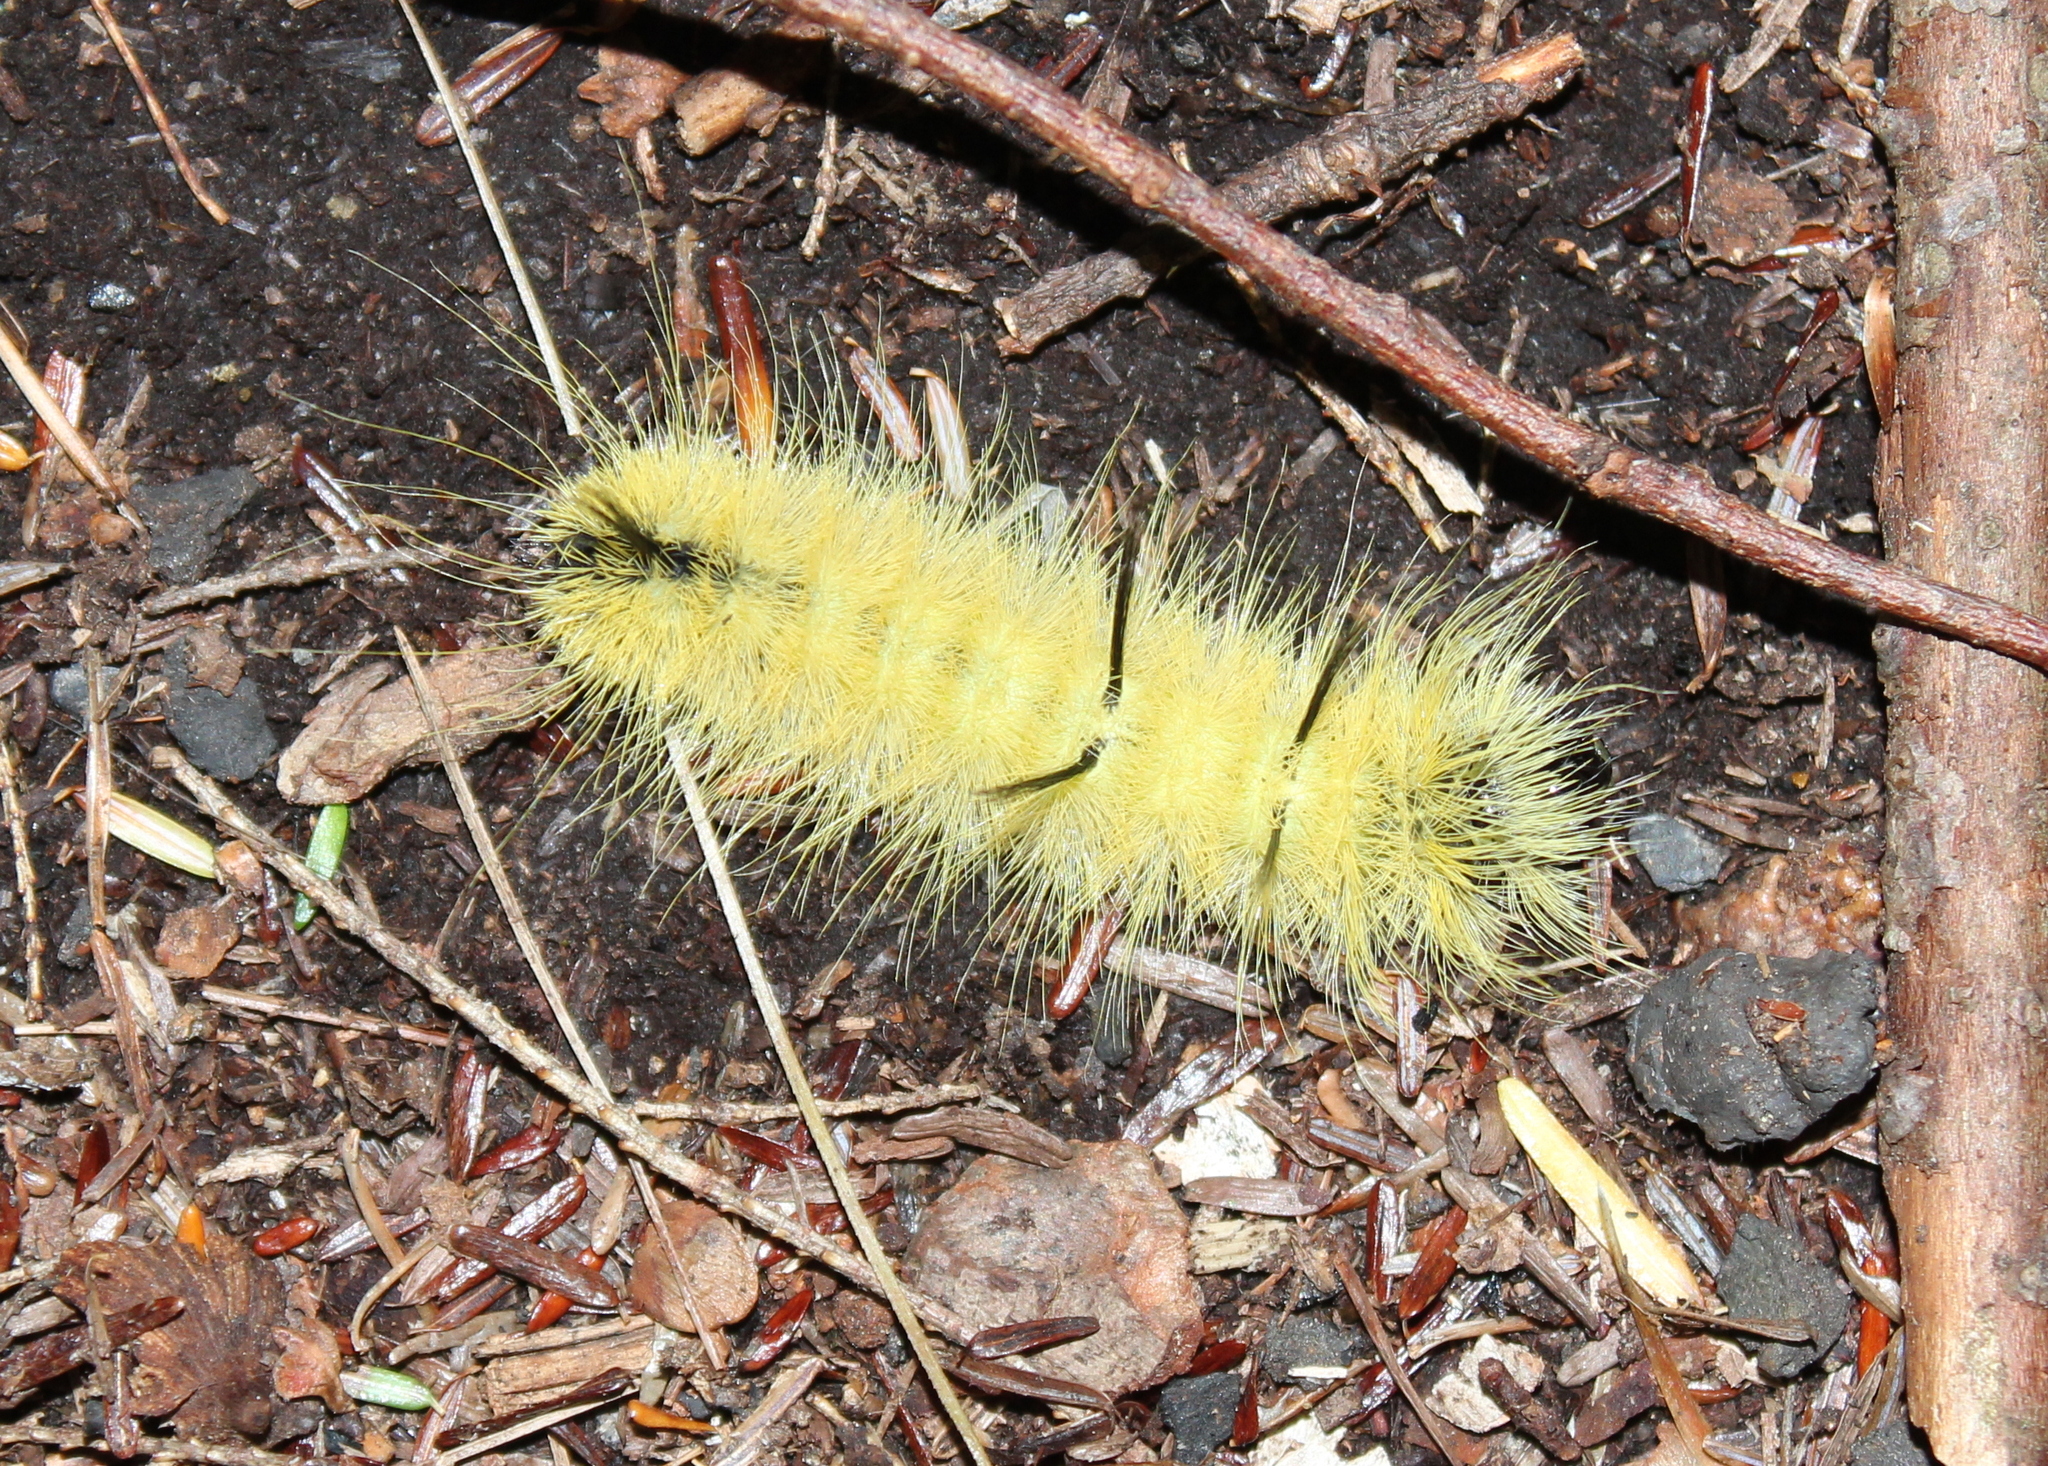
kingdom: Animalia
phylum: Arthropoda
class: Insecta
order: Lepidoptera
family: Noctuidae
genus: Acronicta
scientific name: Acronicta americana
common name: American dagger
